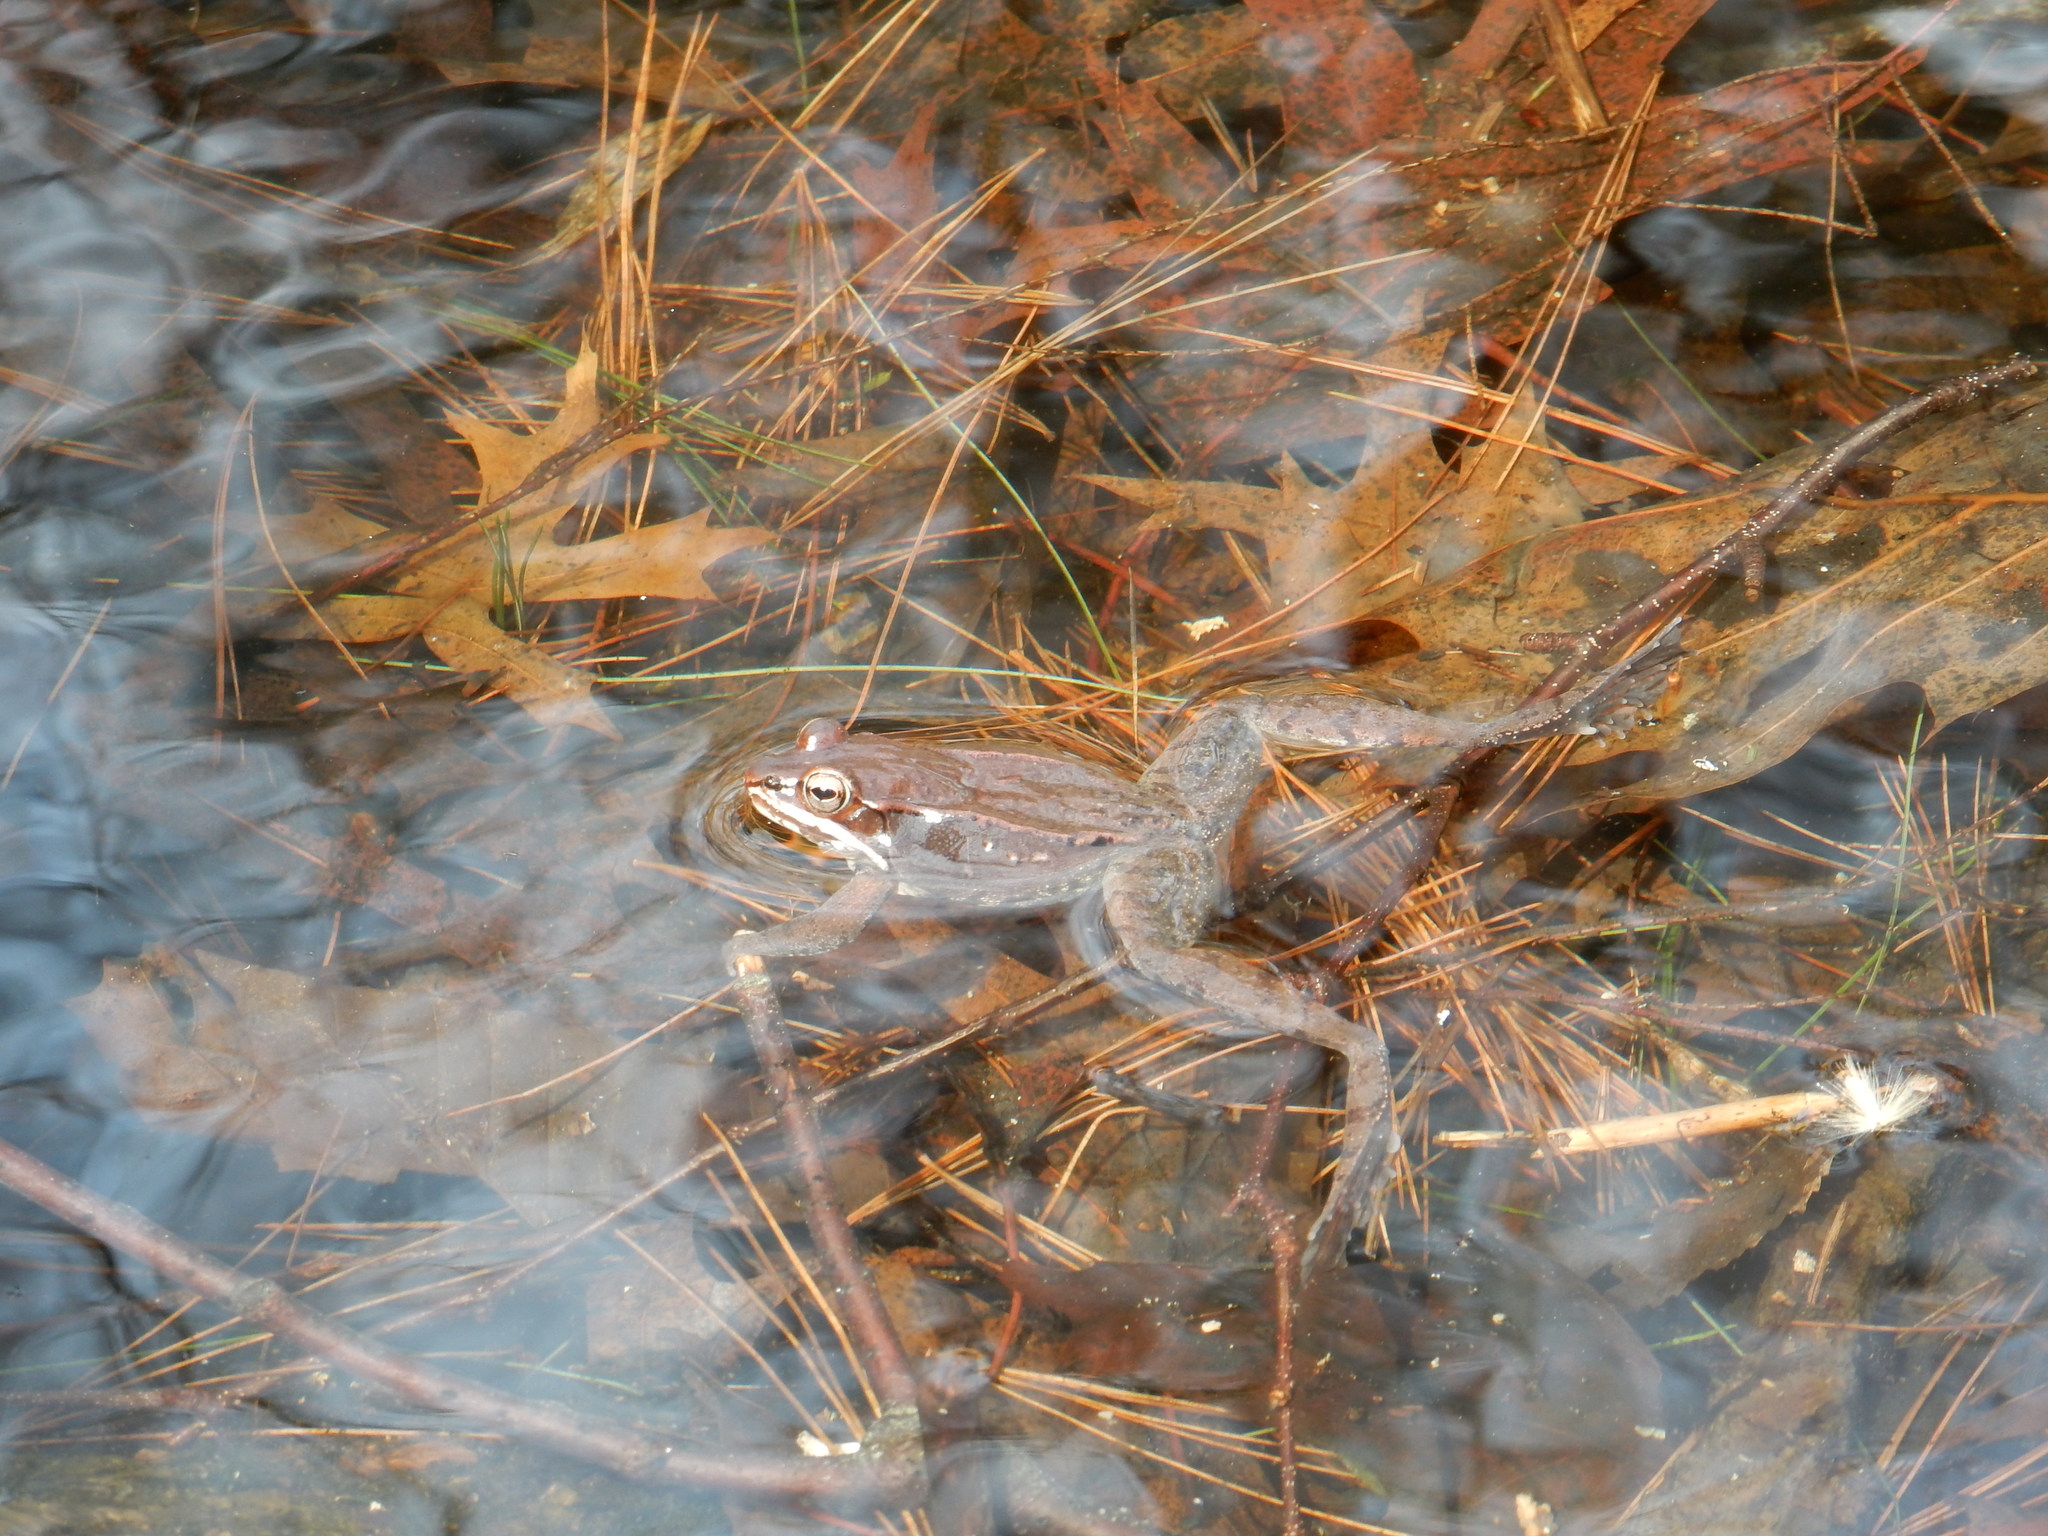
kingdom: Animalia
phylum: Chordata
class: Amphibia
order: Anura
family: Ranidae
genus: Lithobates
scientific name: Lithobates sylvaticus
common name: Wood frog
